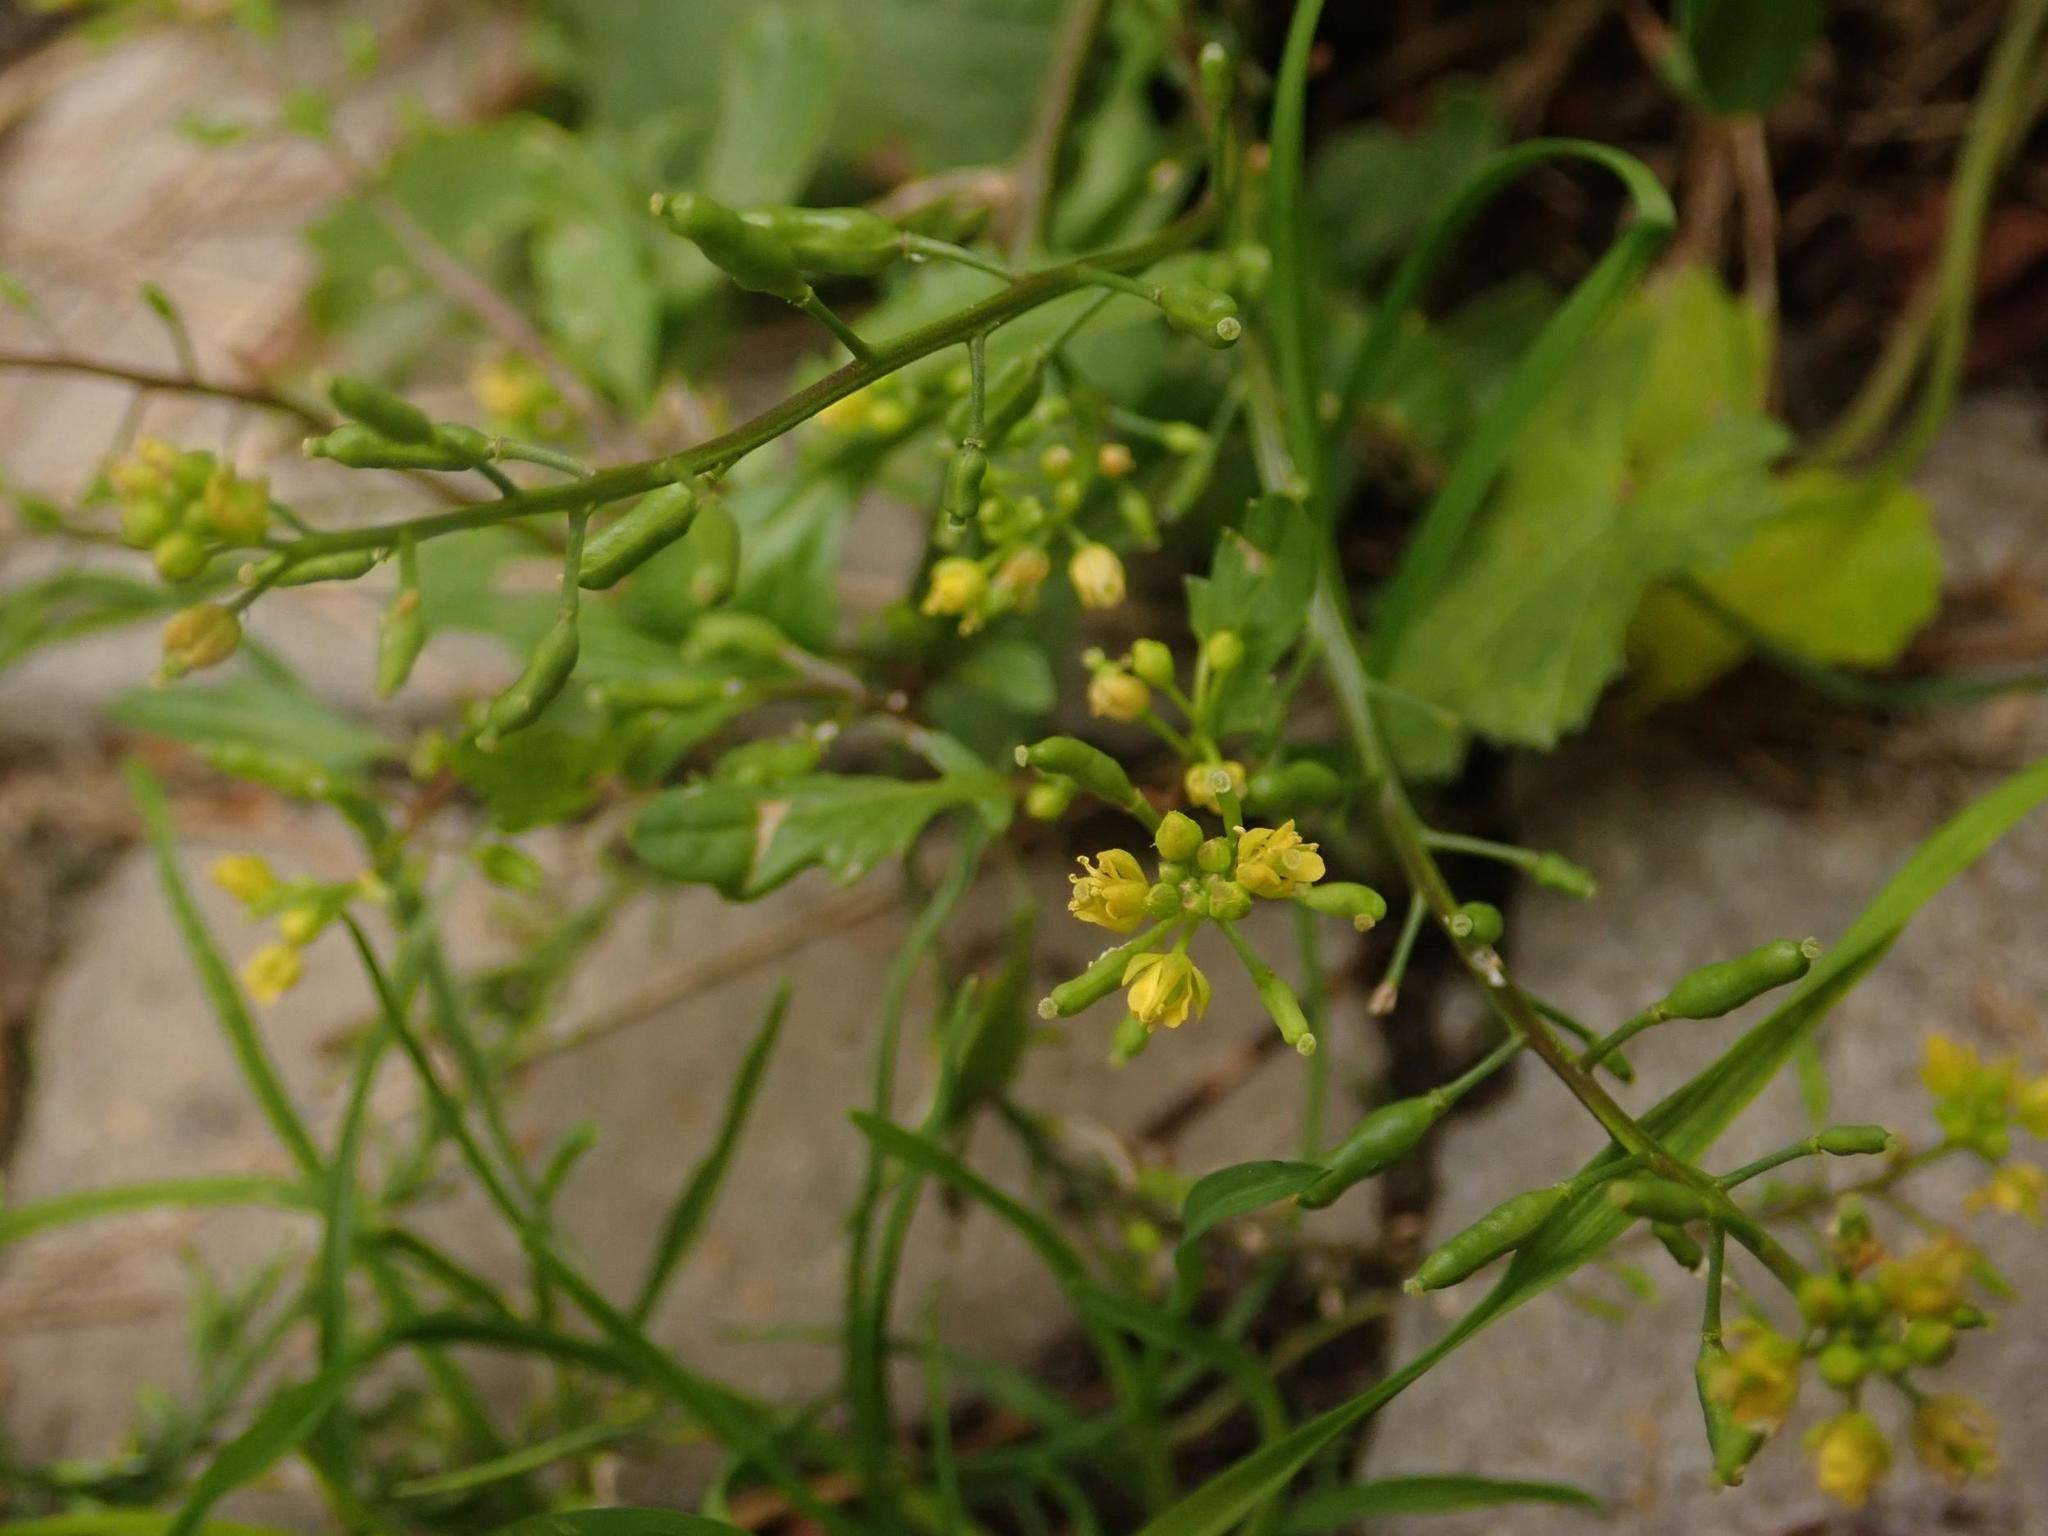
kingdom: Plantae
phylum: Tracheophyta
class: Magnoliopsida
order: Brassicales
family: Brassicaceae
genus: Rorippa
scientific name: Rorippa palustris
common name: Marsh yellow-cress
